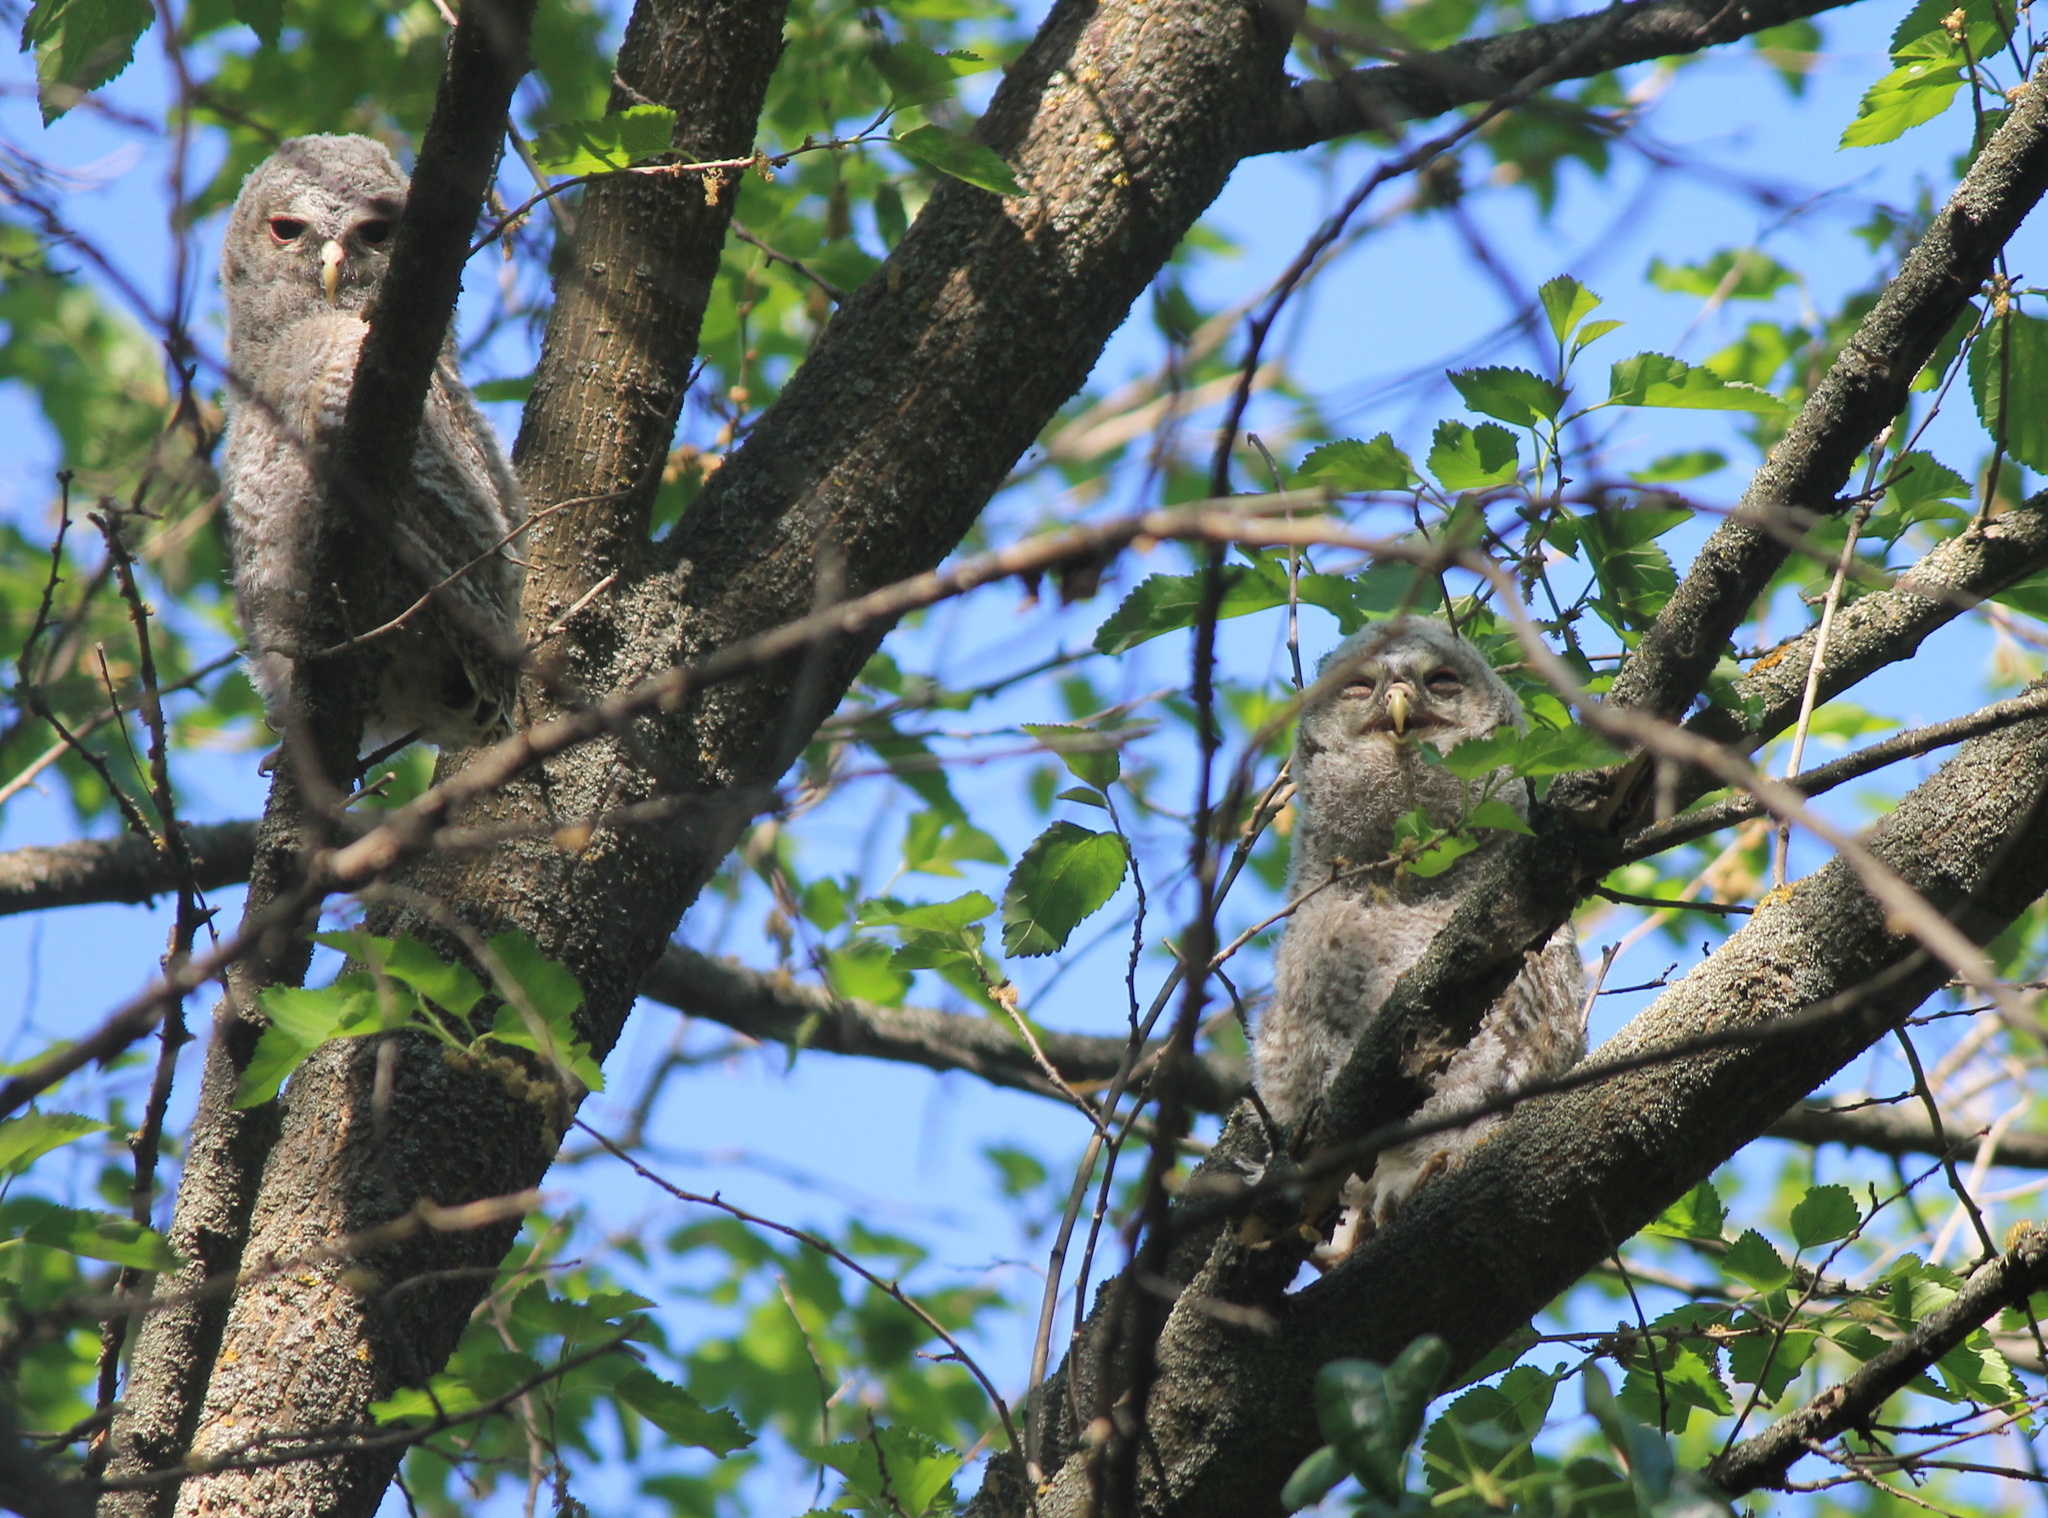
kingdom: Animalia
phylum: Chordata
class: Aves
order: Strigiformes
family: Strigidae
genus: Strix
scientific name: Strix aluco
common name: Tawny owl
